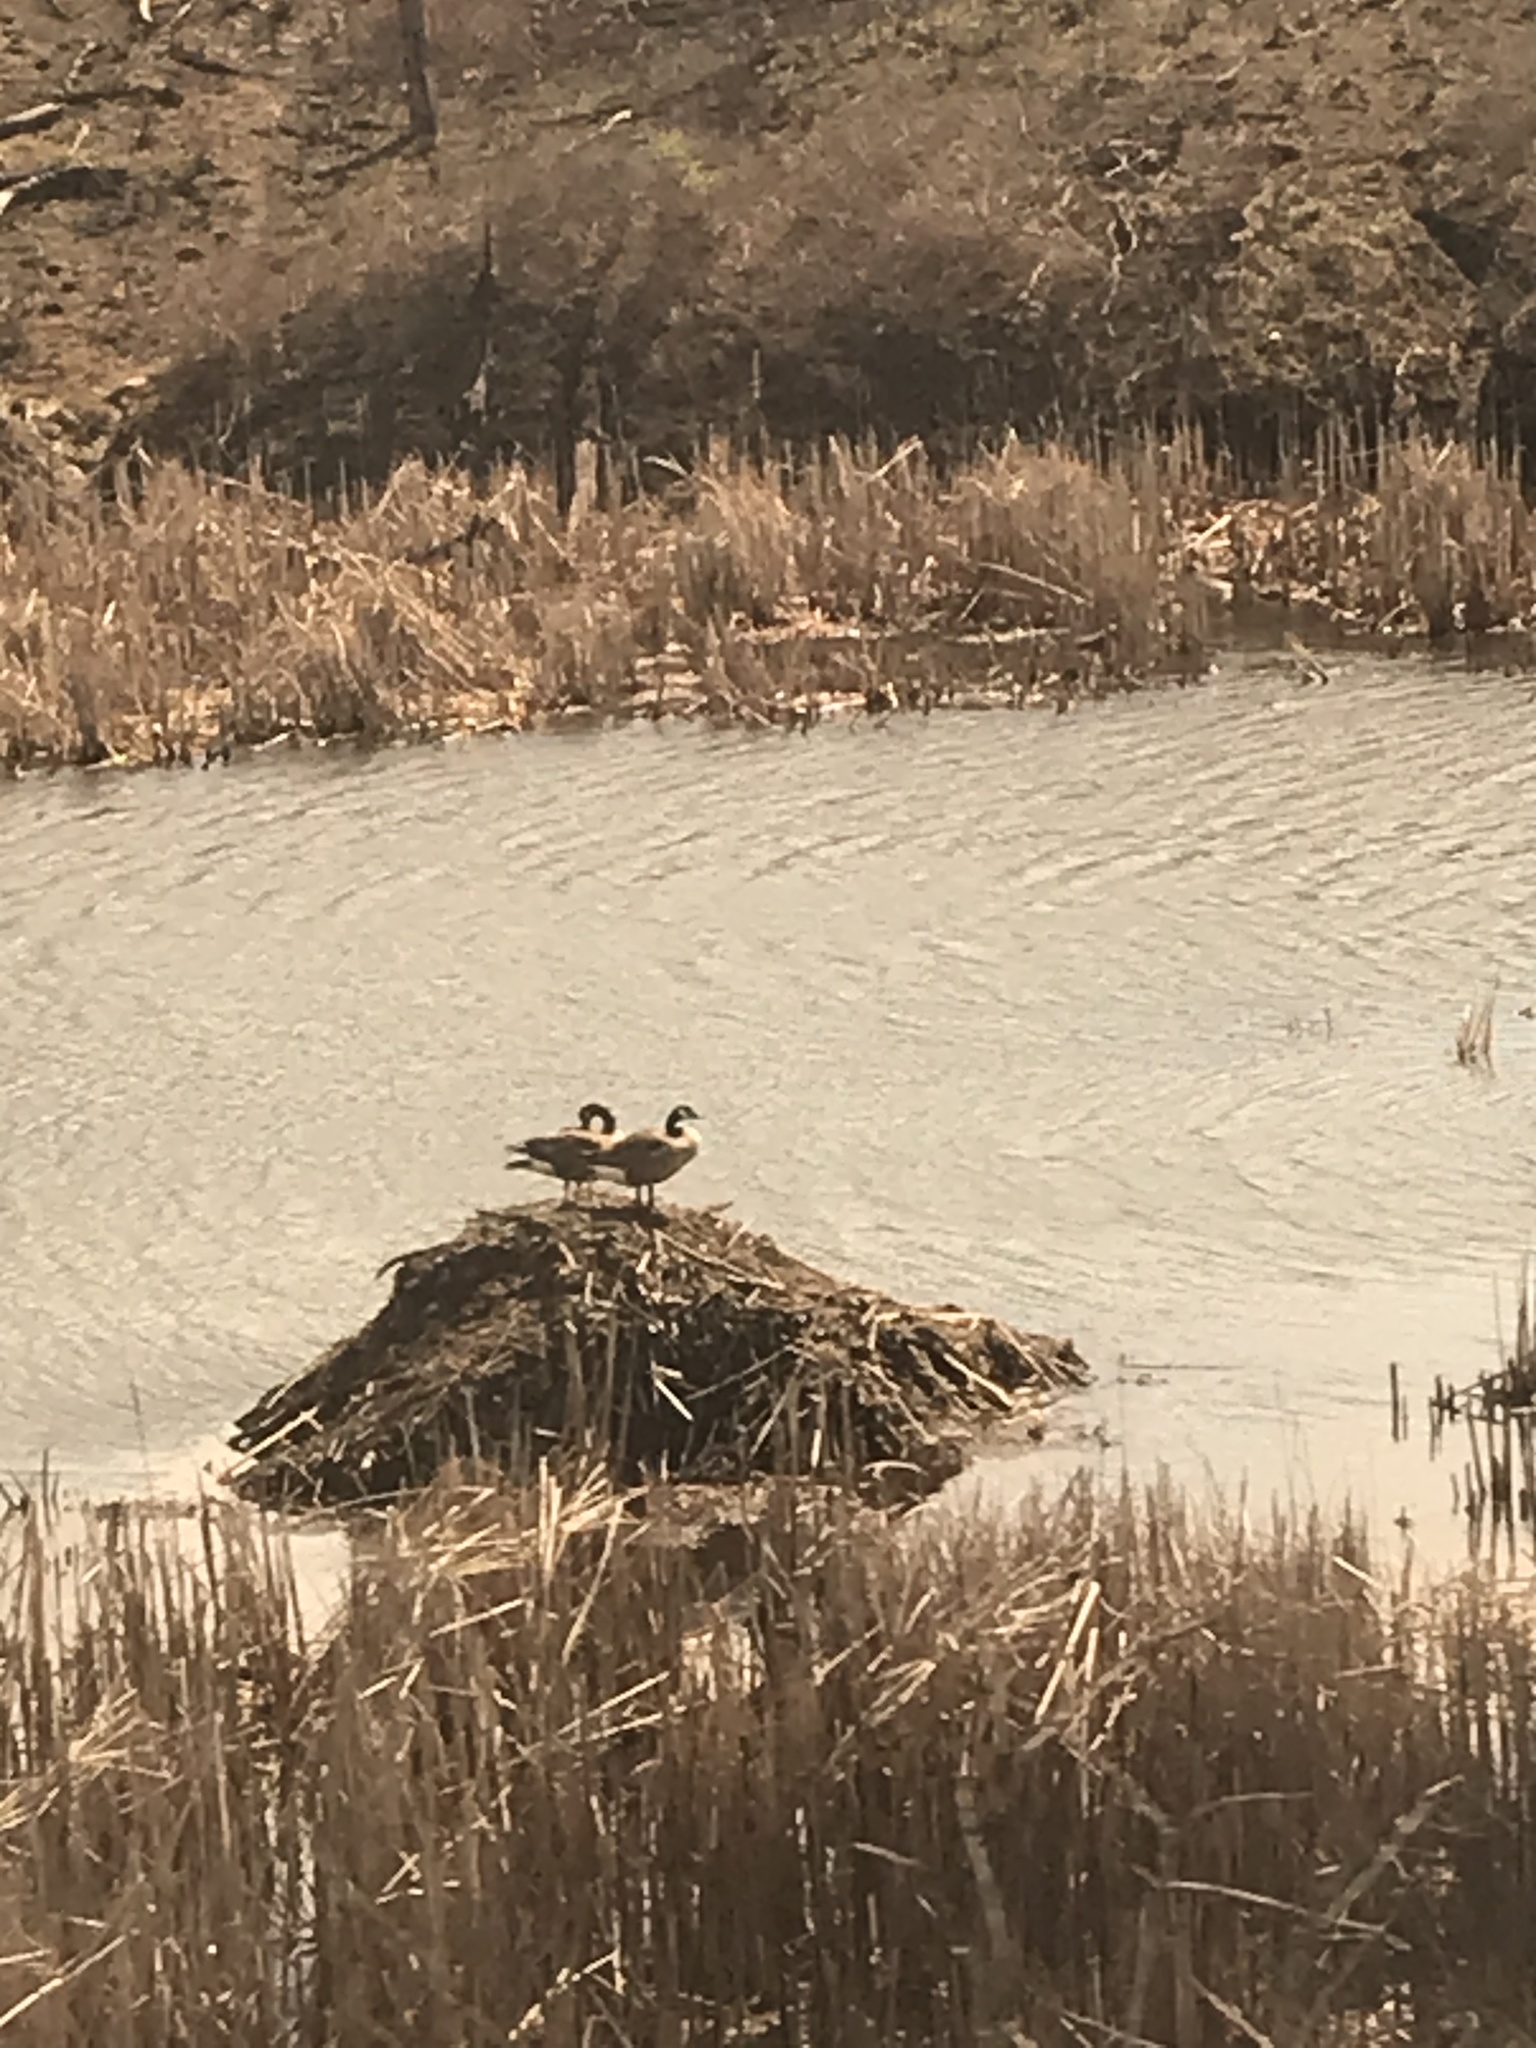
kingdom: Animalia
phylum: Chordata
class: Aves
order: Anseriformes
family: Anatidae
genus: Branta
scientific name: Branta canadensis
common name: Canada goose
